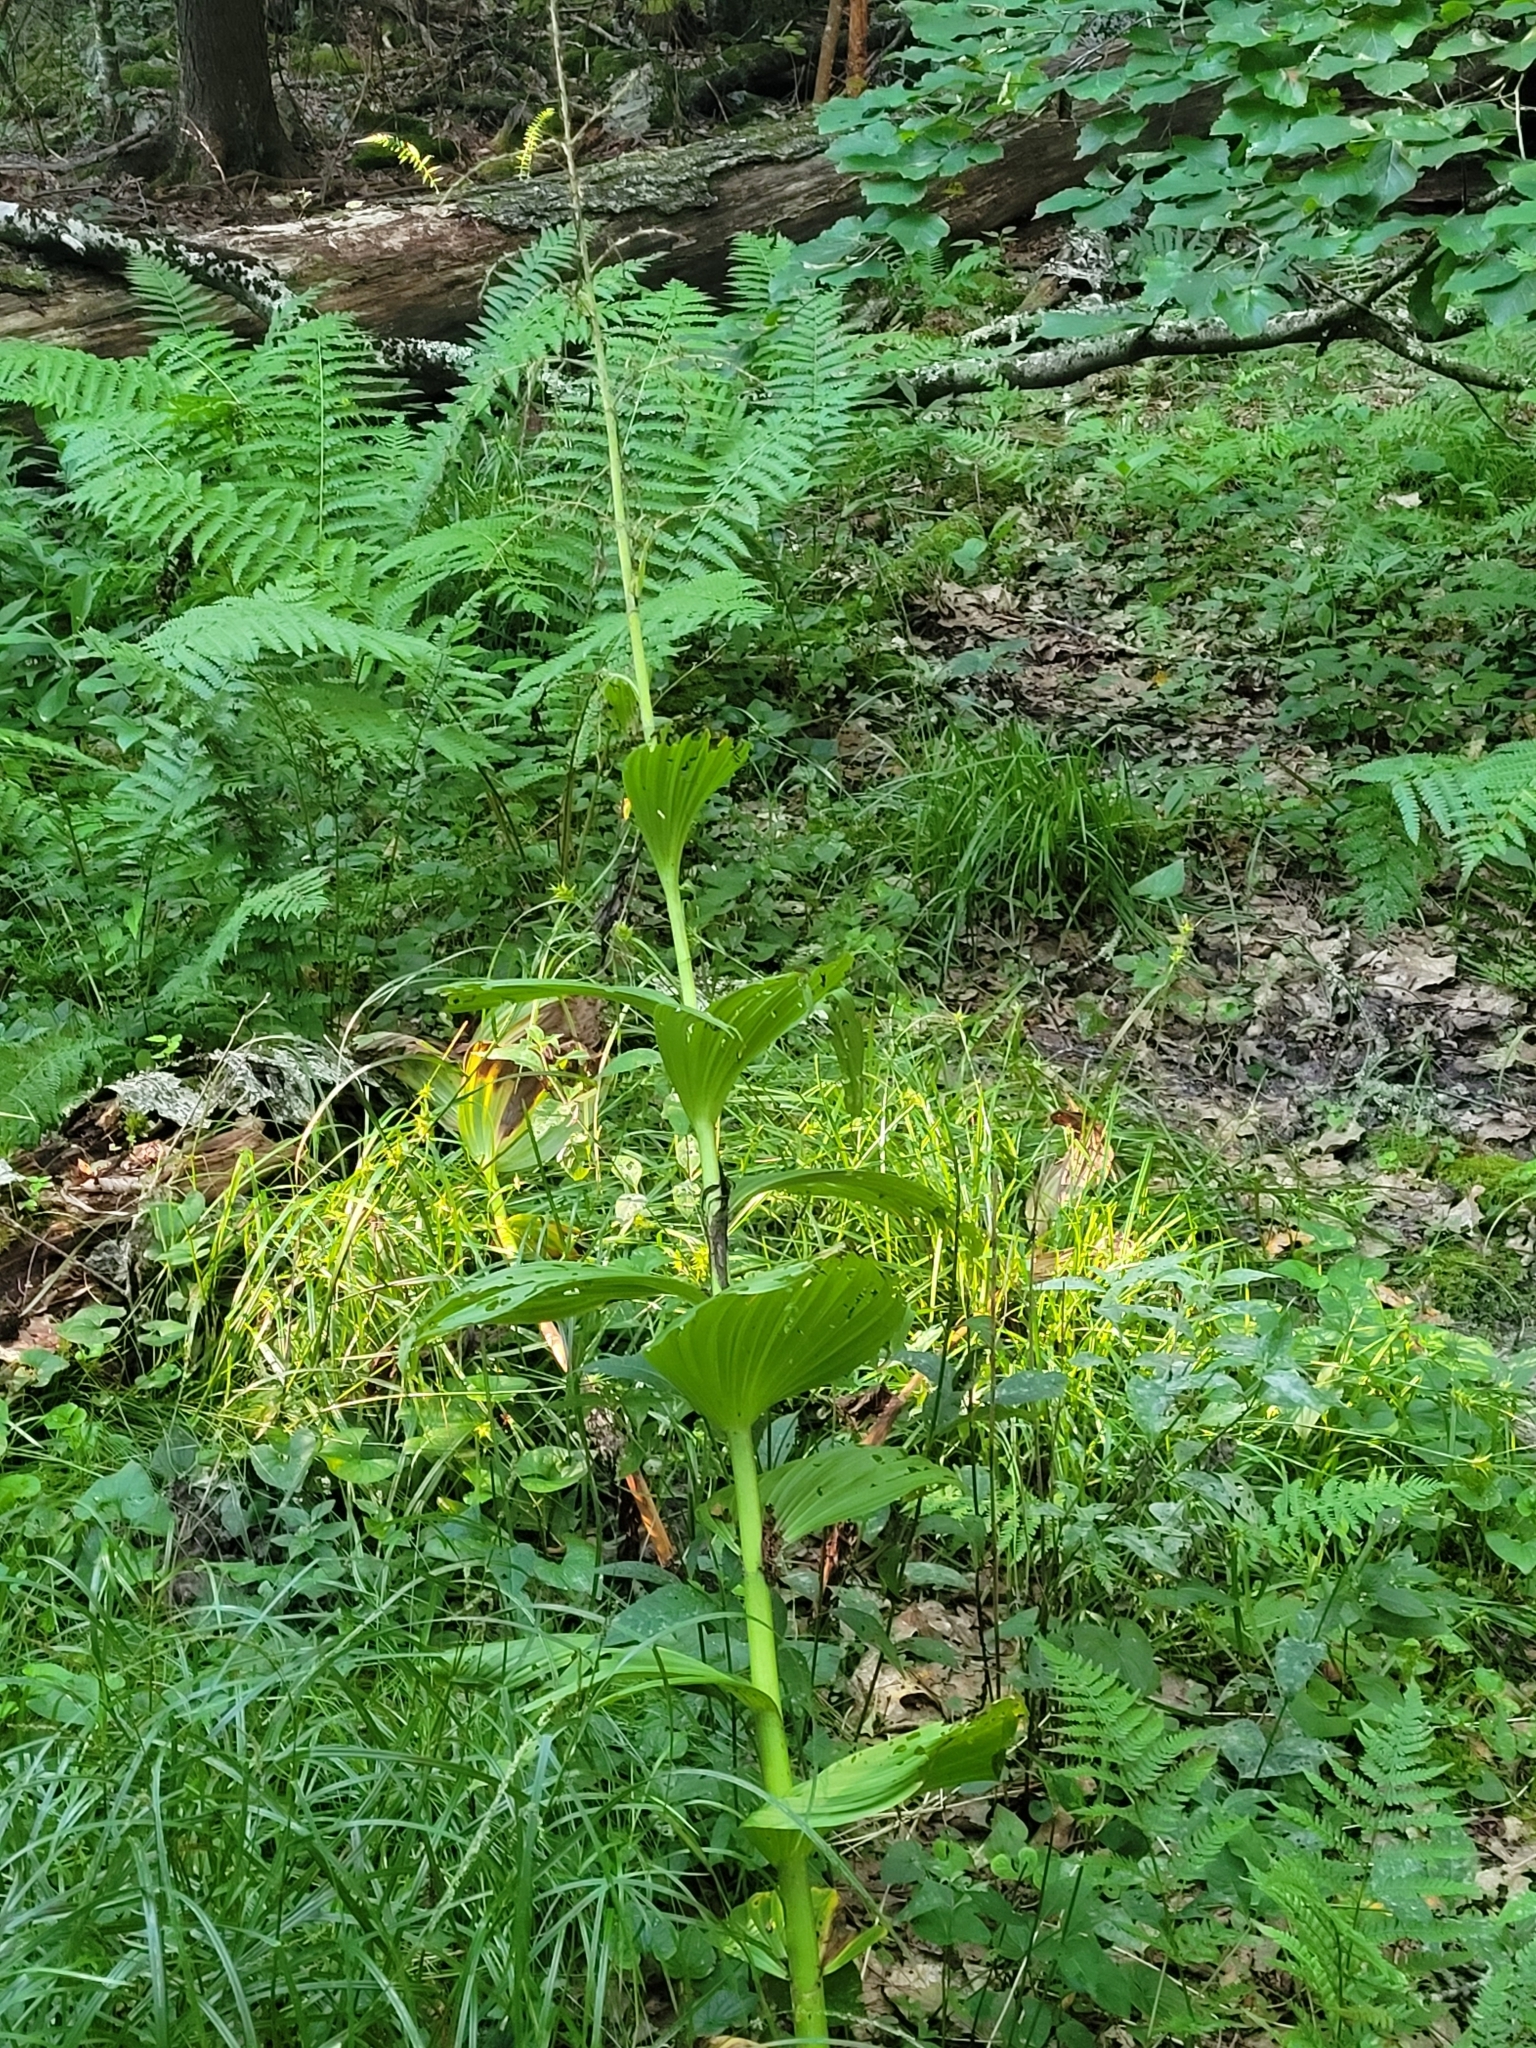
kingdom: Plantae
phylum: Tracheophyta
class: Liliopsida
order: Liliales
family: Melanthiaceae
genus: Veratrum
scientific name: Veratrum viride
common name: American false hellebore
